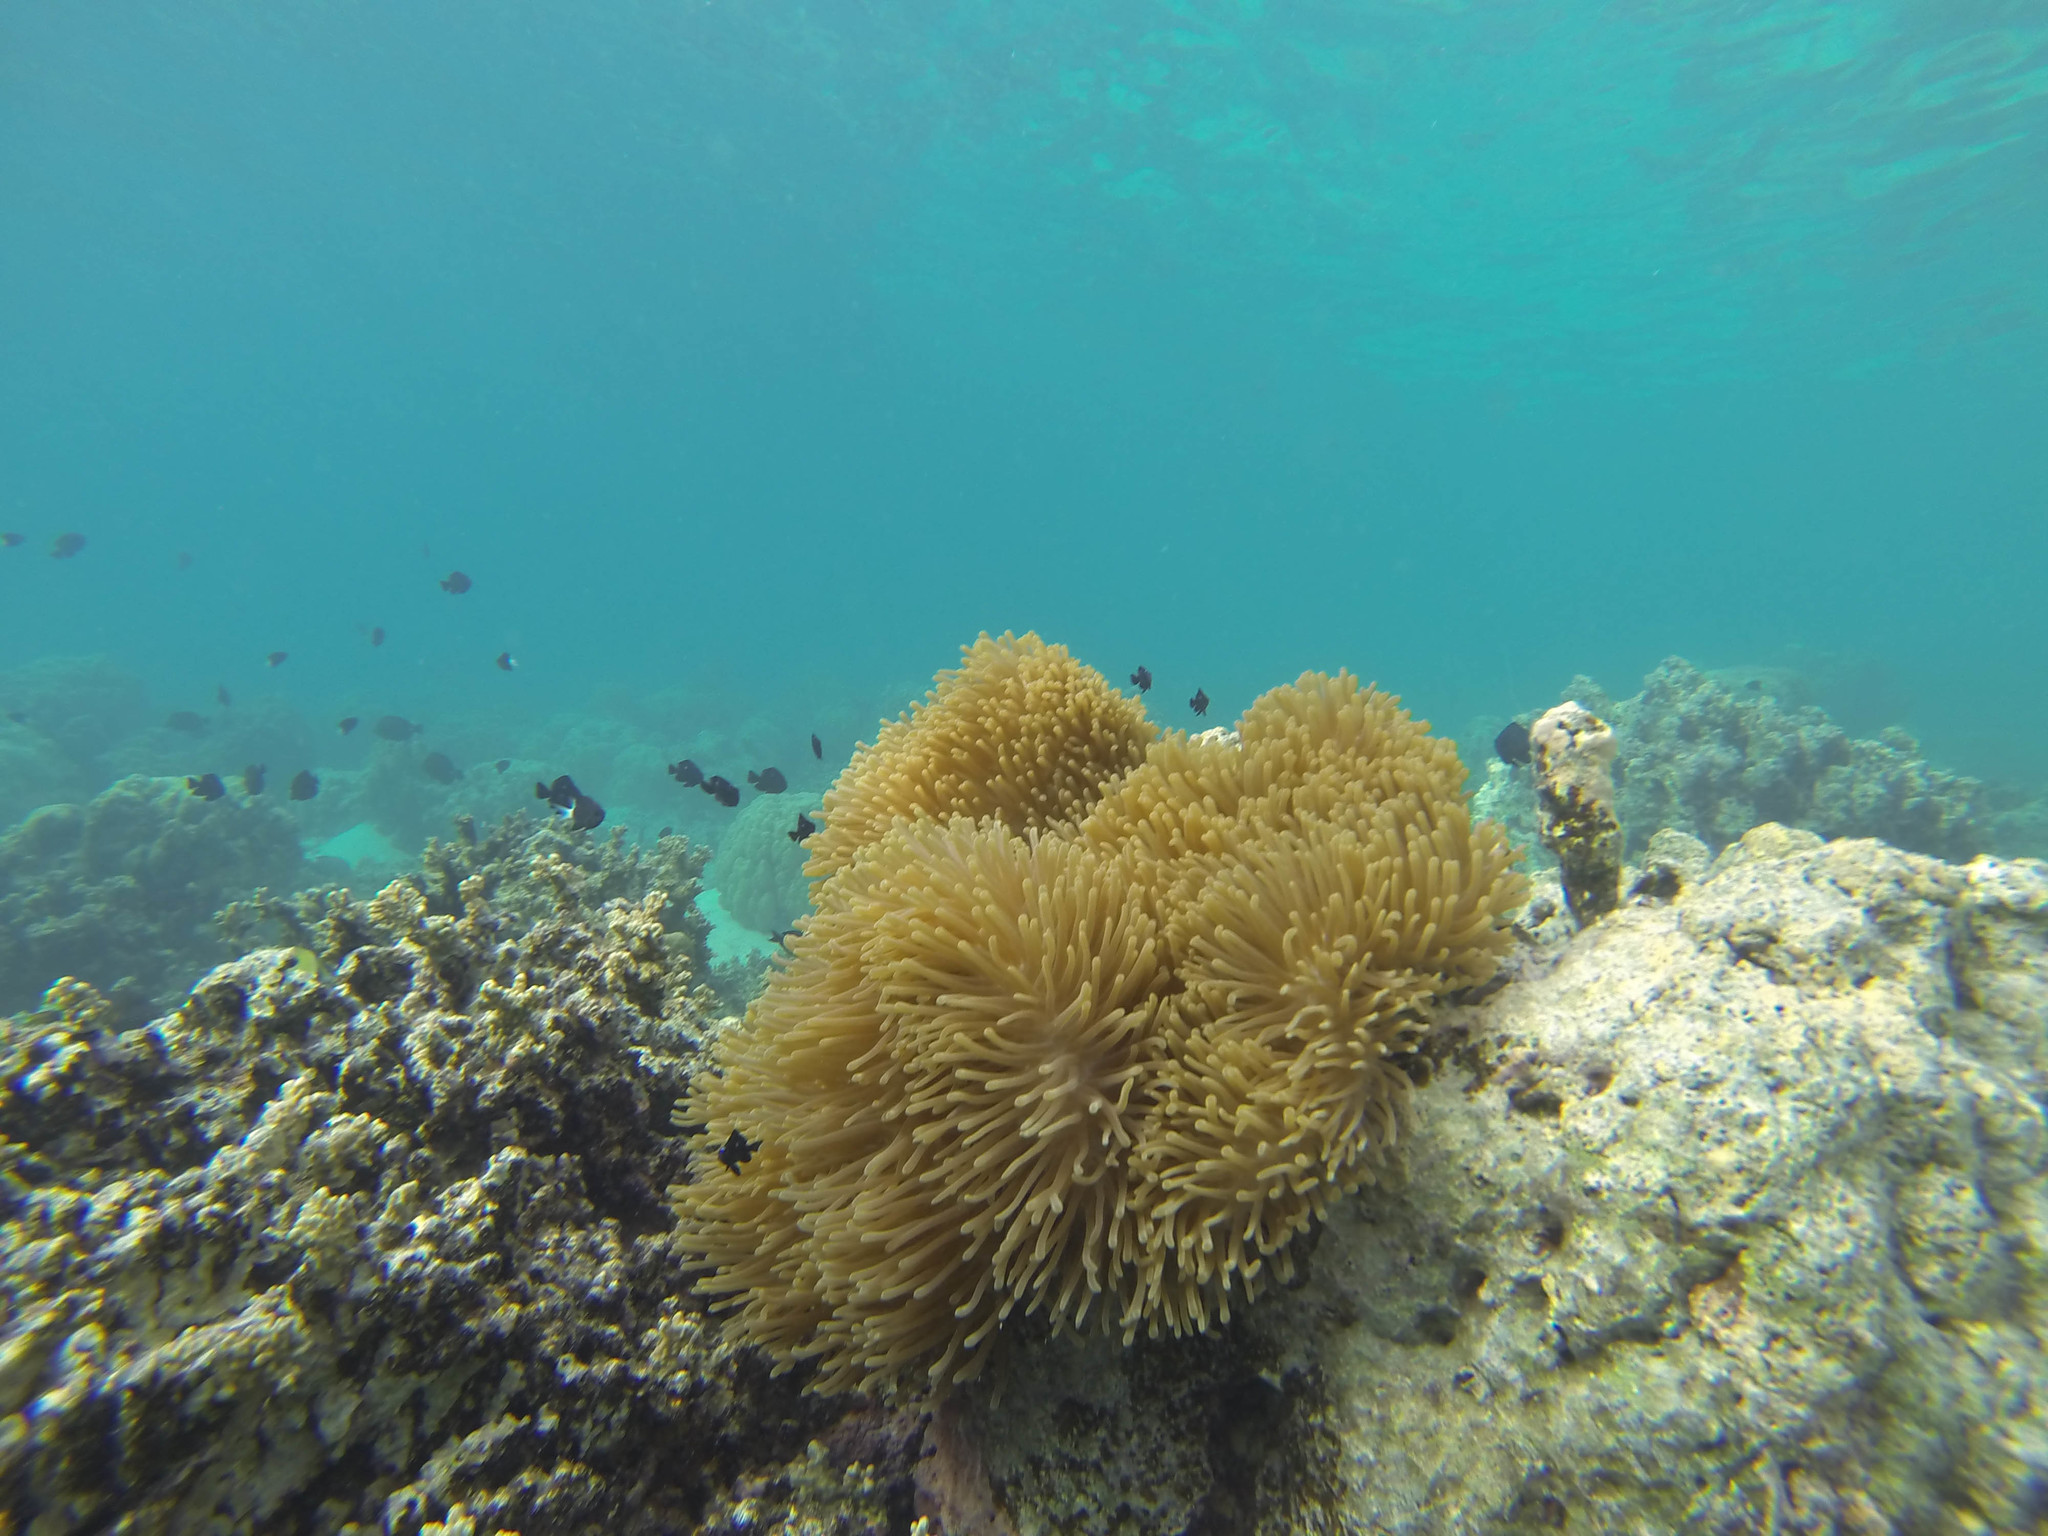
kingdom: Animalia
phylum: Cnidaria
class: Anthozoa
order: Actiniaria
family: Stichodactylidae
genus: Radianthus
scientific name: Radianthus magnifica
